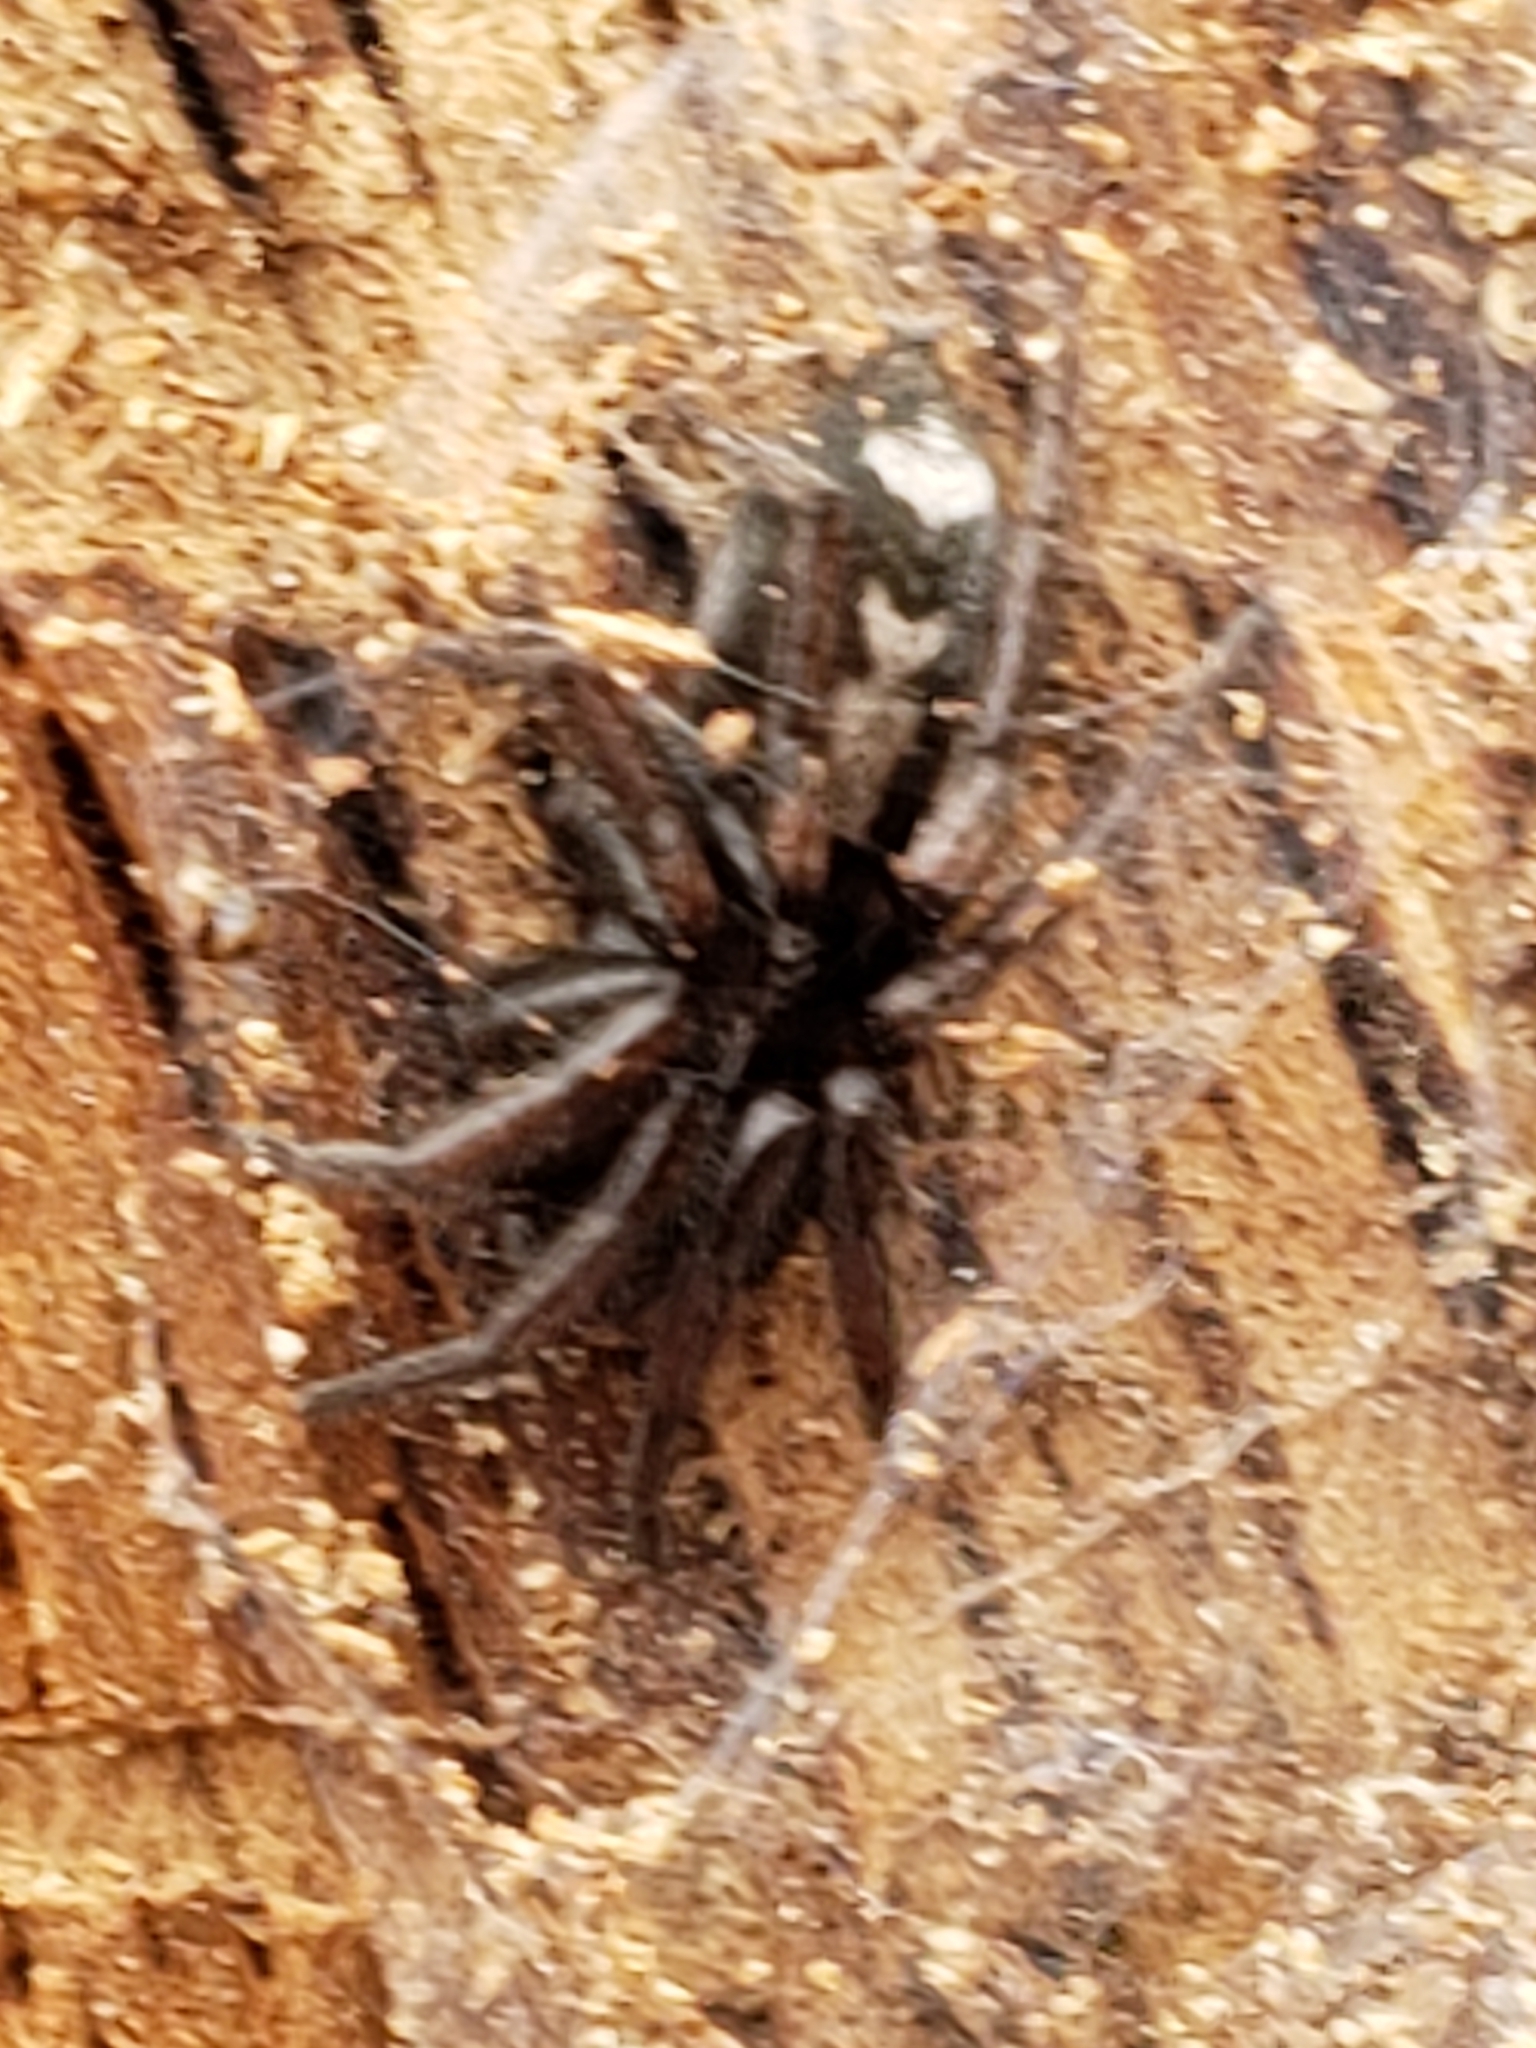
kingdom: Animalia
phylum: Arthropoda
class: Arachnida
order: Araneae
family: Gnaphosidae
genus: Herpyllus
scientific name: Herpyllus ecclesiasticus
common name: Eastern parson spider
